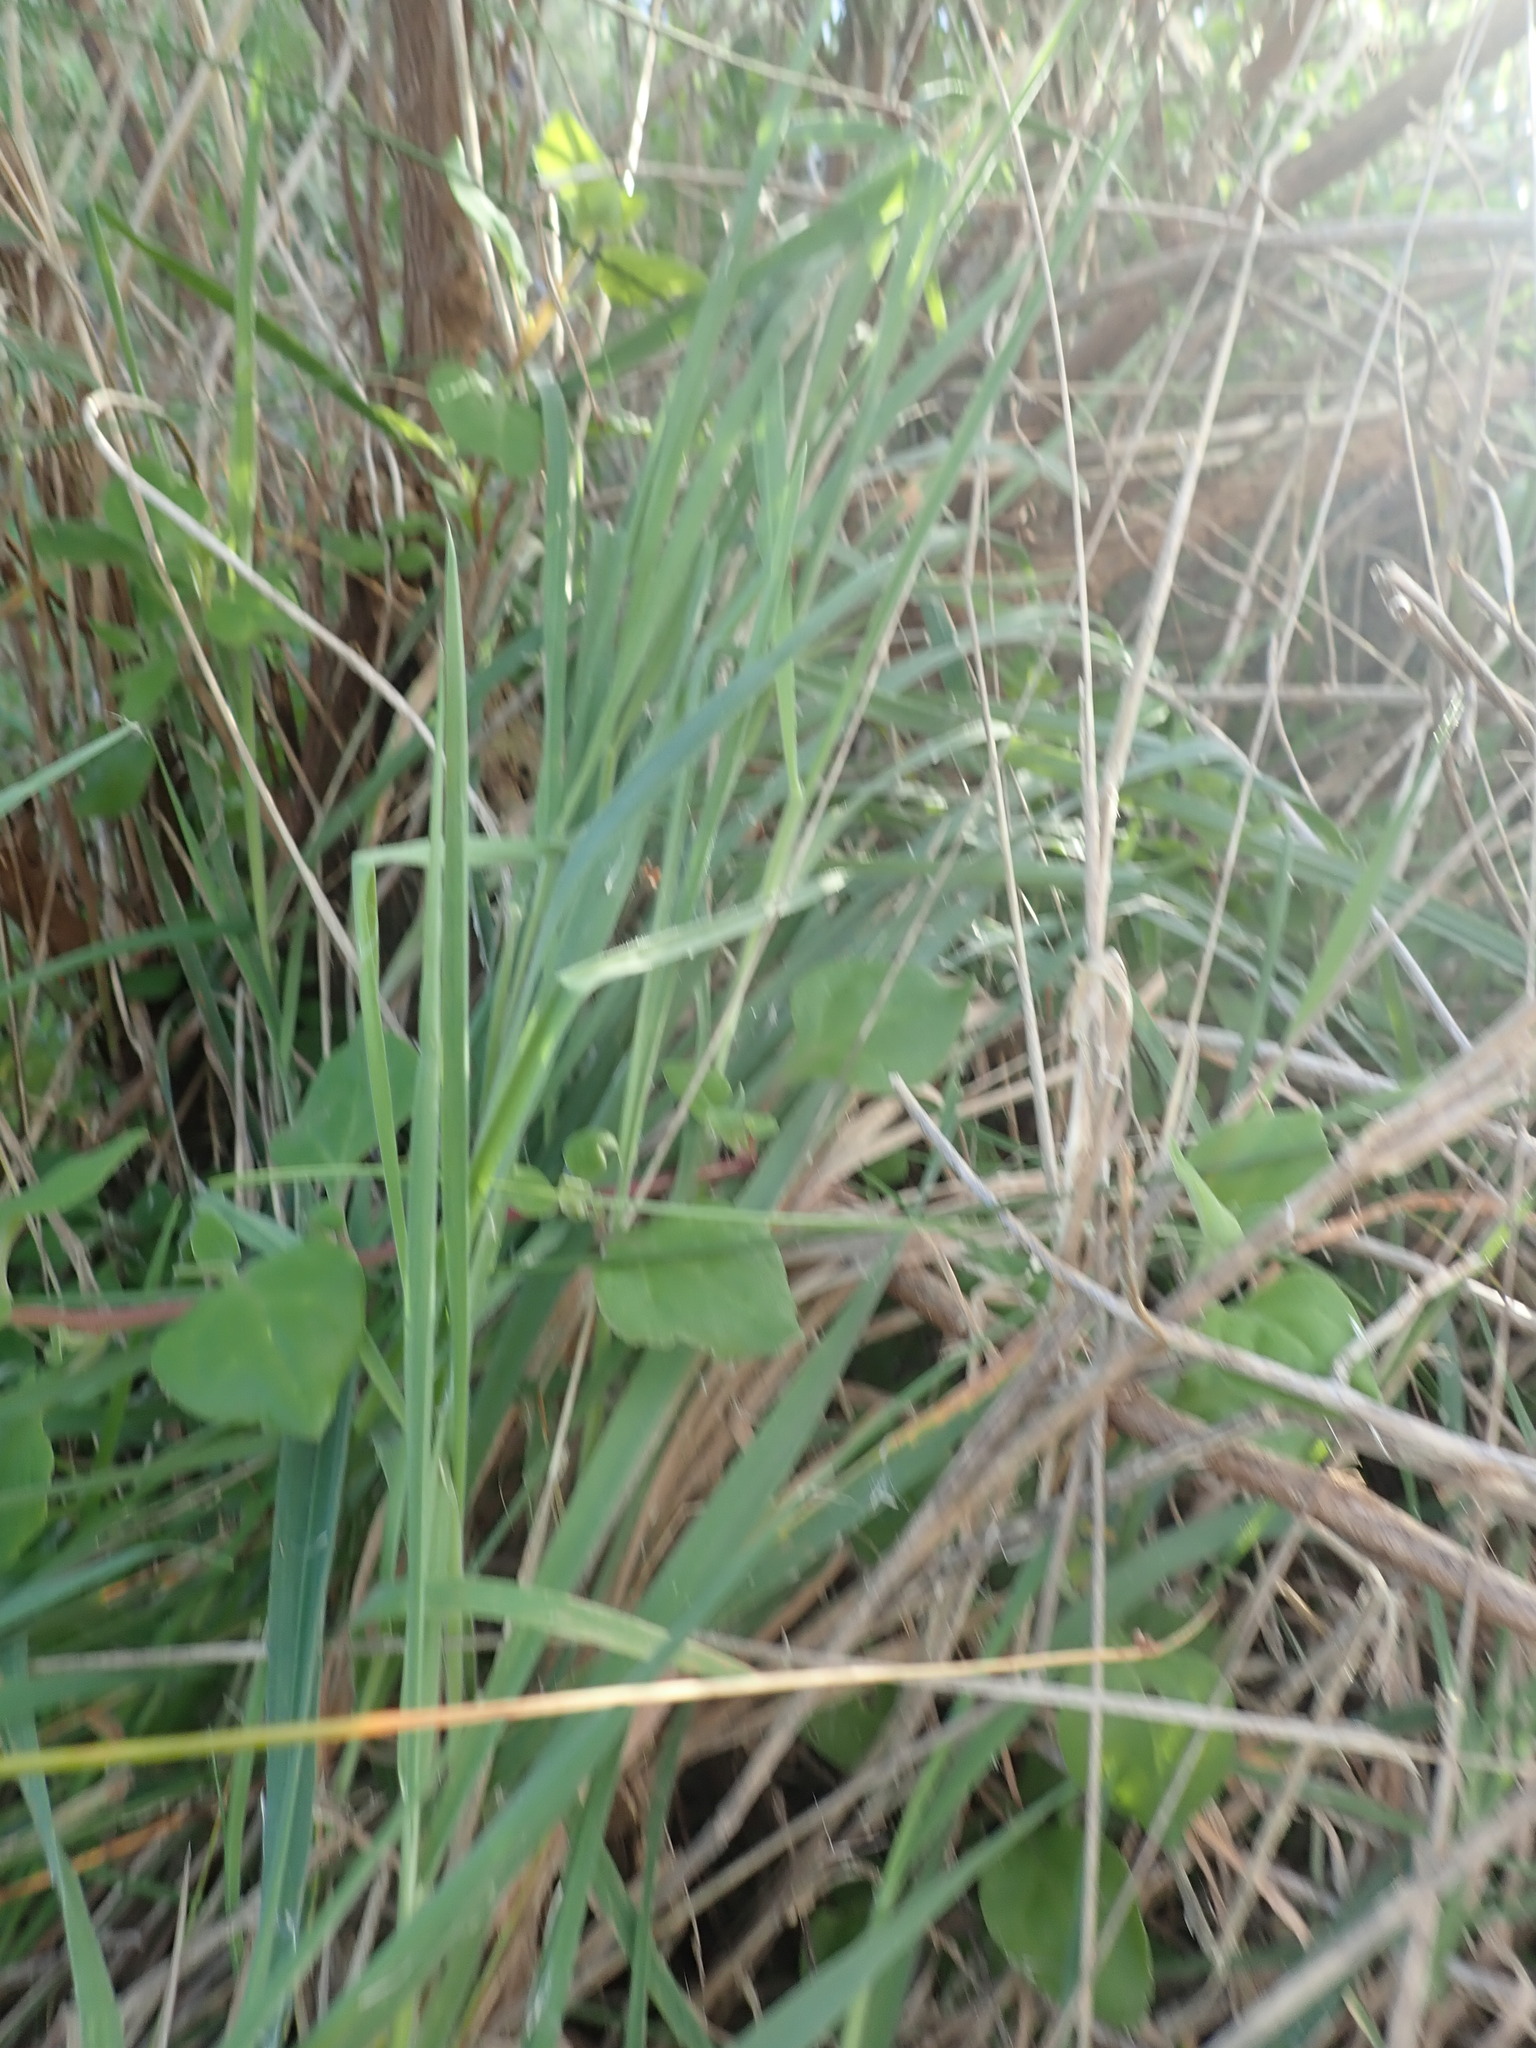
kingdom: Plantae
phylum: Tracheophyta
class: Magnoliopsida
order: Caryophyllales
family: Aizoaceae
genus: Tetragonia
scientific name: Tetragonia implexicoma
